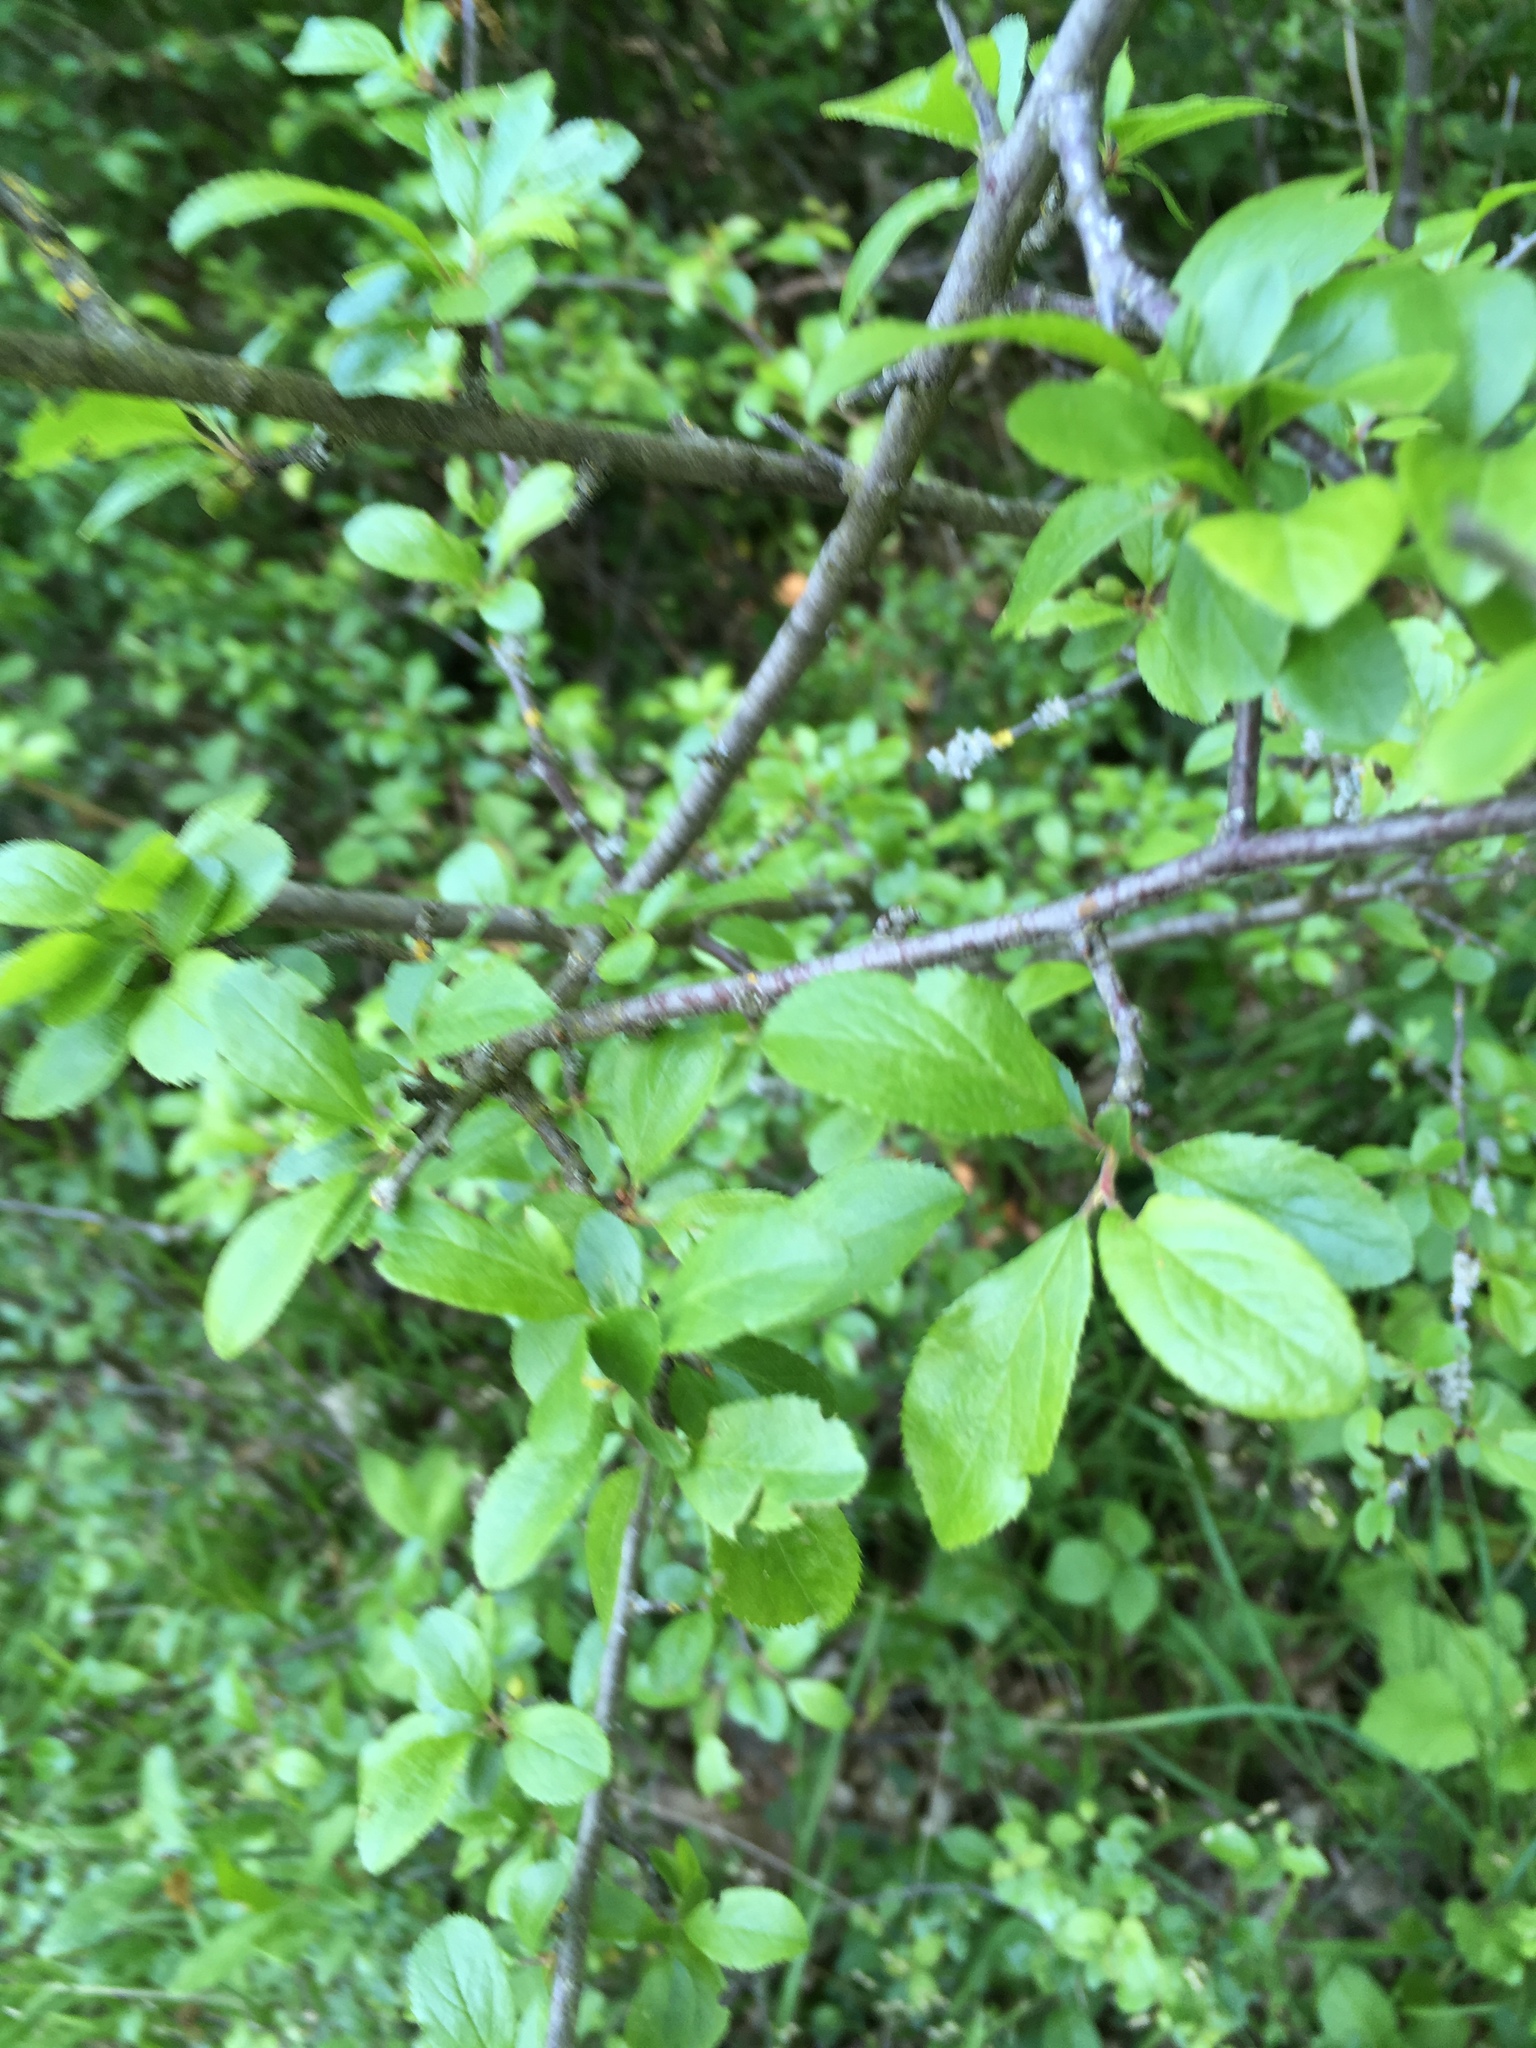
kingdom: Plantae
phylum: Tracheophyta
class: Magnoliopsida
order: Rosales
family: Rosaceae
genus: Prunus
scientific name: Prunus spinosa
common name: Blackthorn
